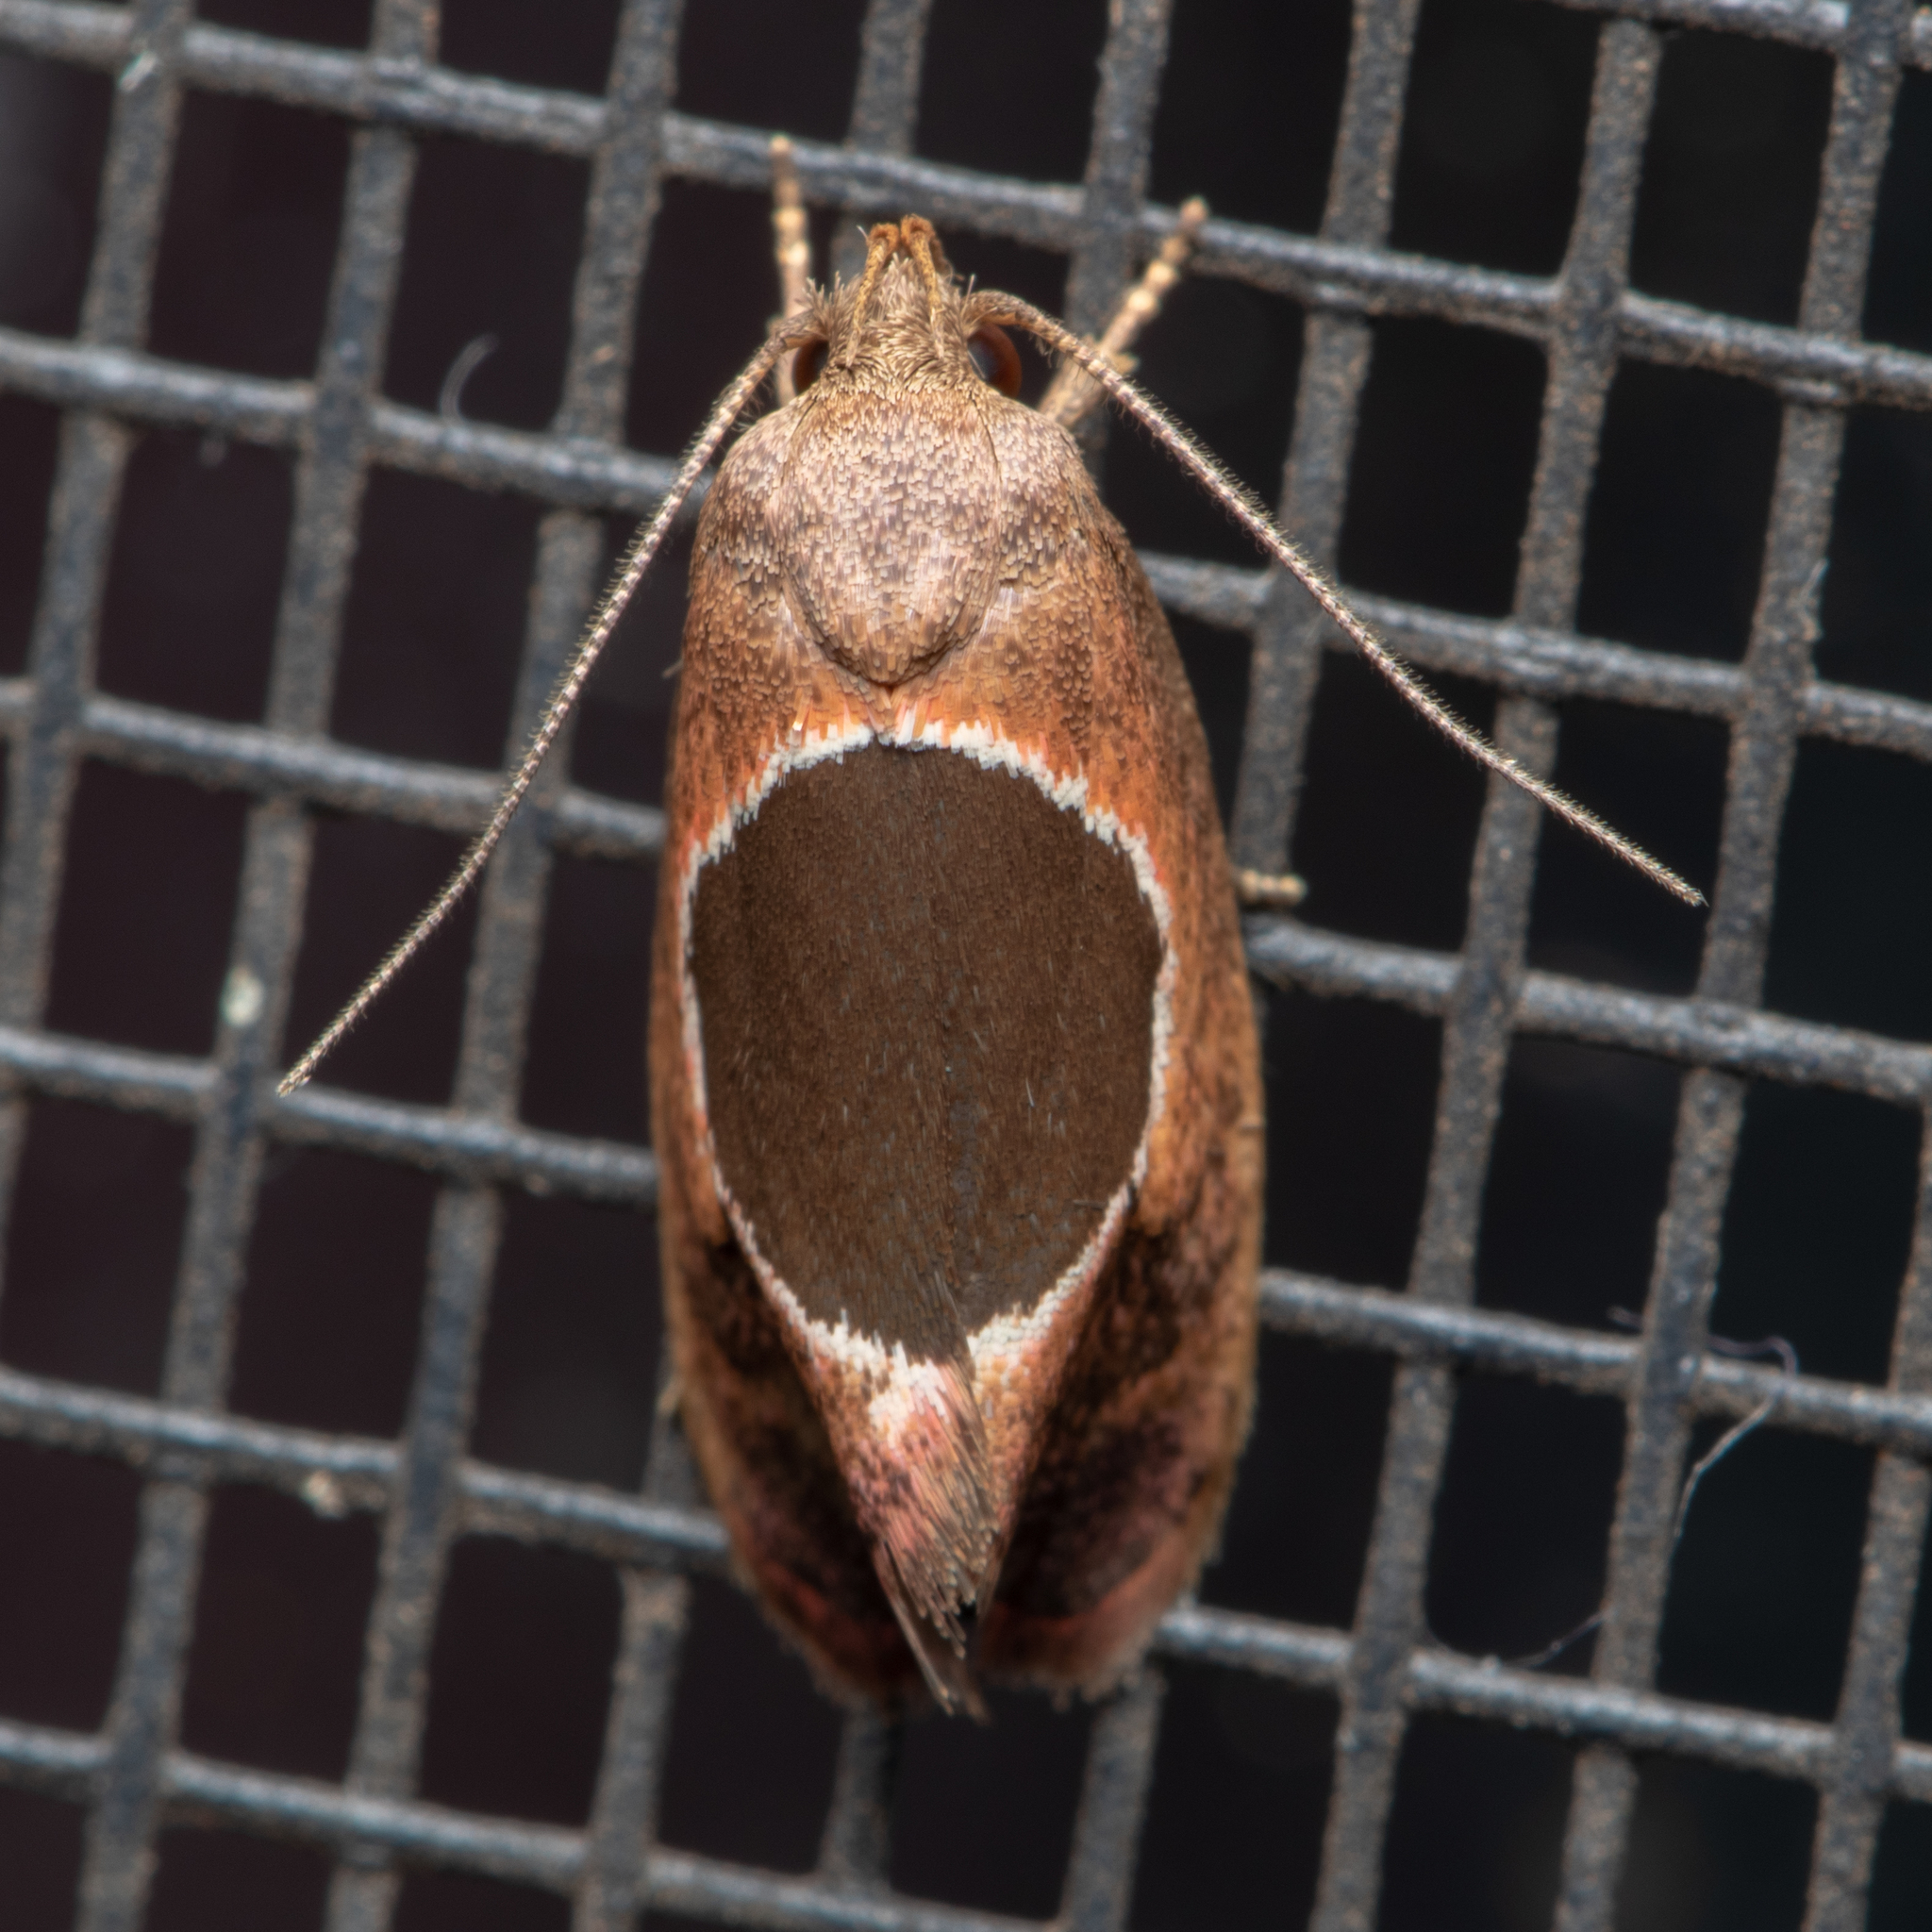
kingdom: Animalia
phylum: Arthropoda
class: Insecta
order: Lepidoptera
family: Oecophoridae
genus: Hoplomorpha
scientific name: Hoplomorpha abalienella
